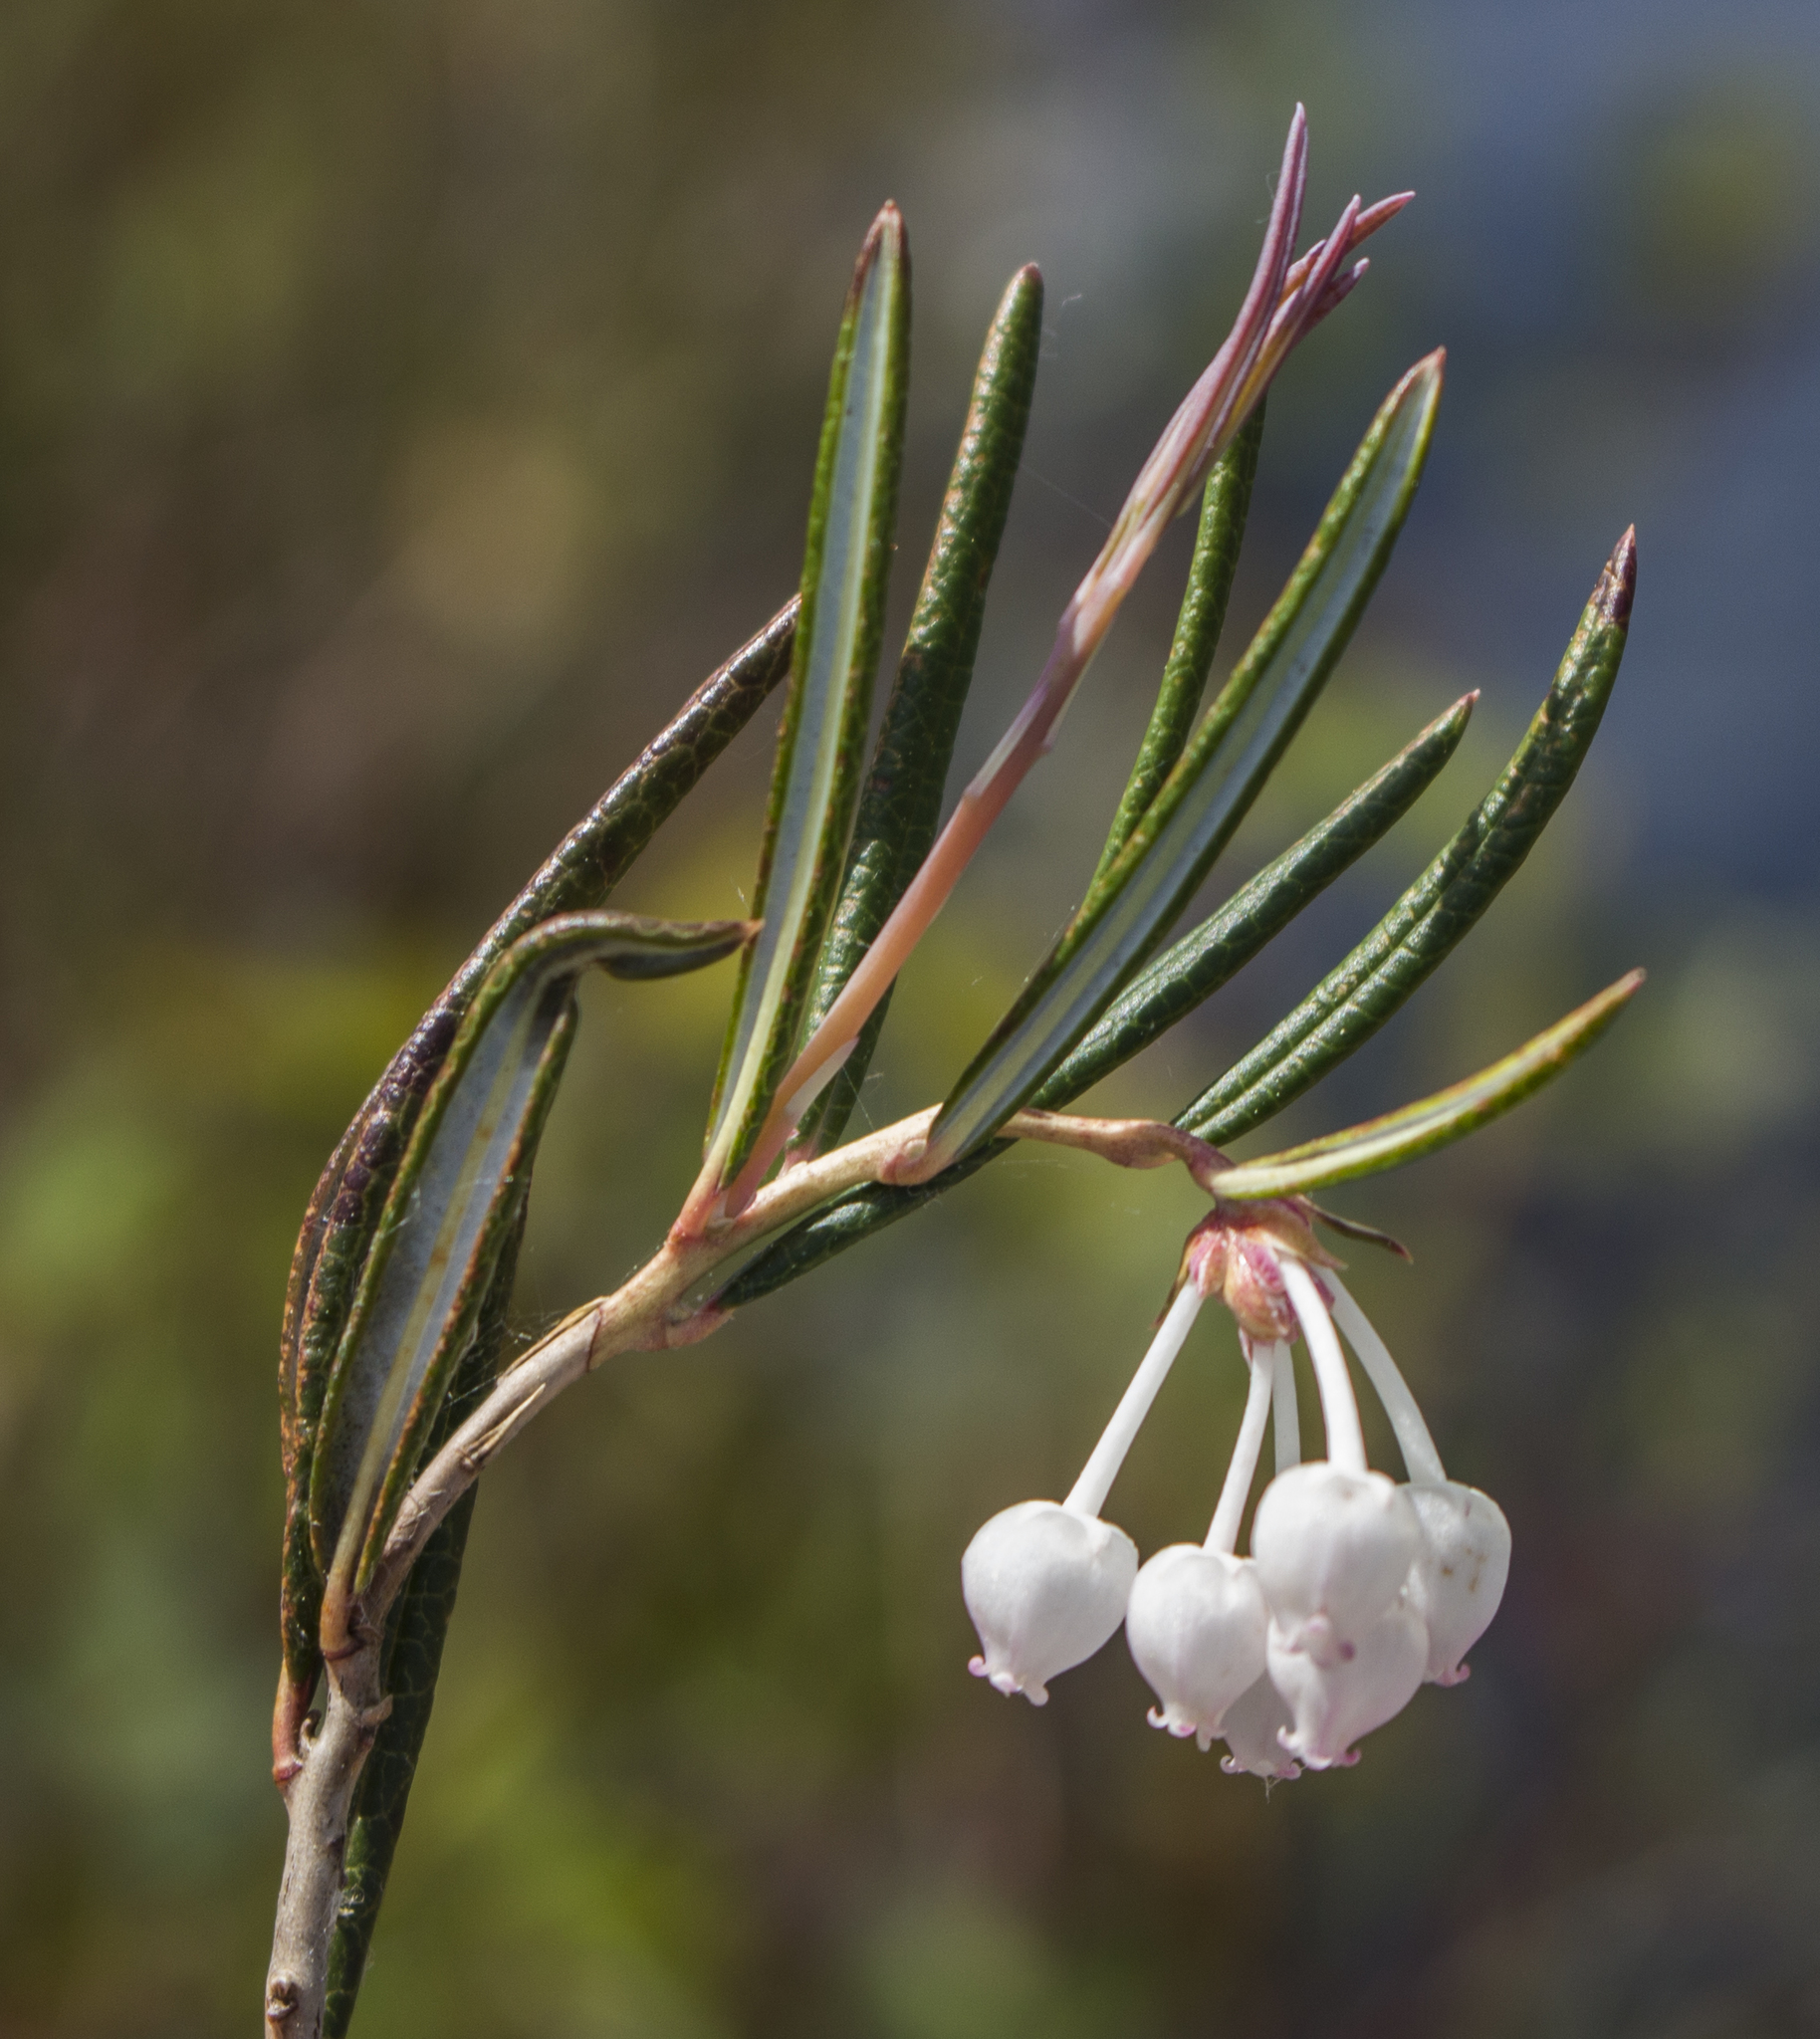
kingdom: Plantae
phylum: Tracheophyta
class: Magnoliopsida
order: Ericales
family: Ericaceae
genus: Andromeda
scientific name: Andromeda polifolia
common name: Bog-rosemary
